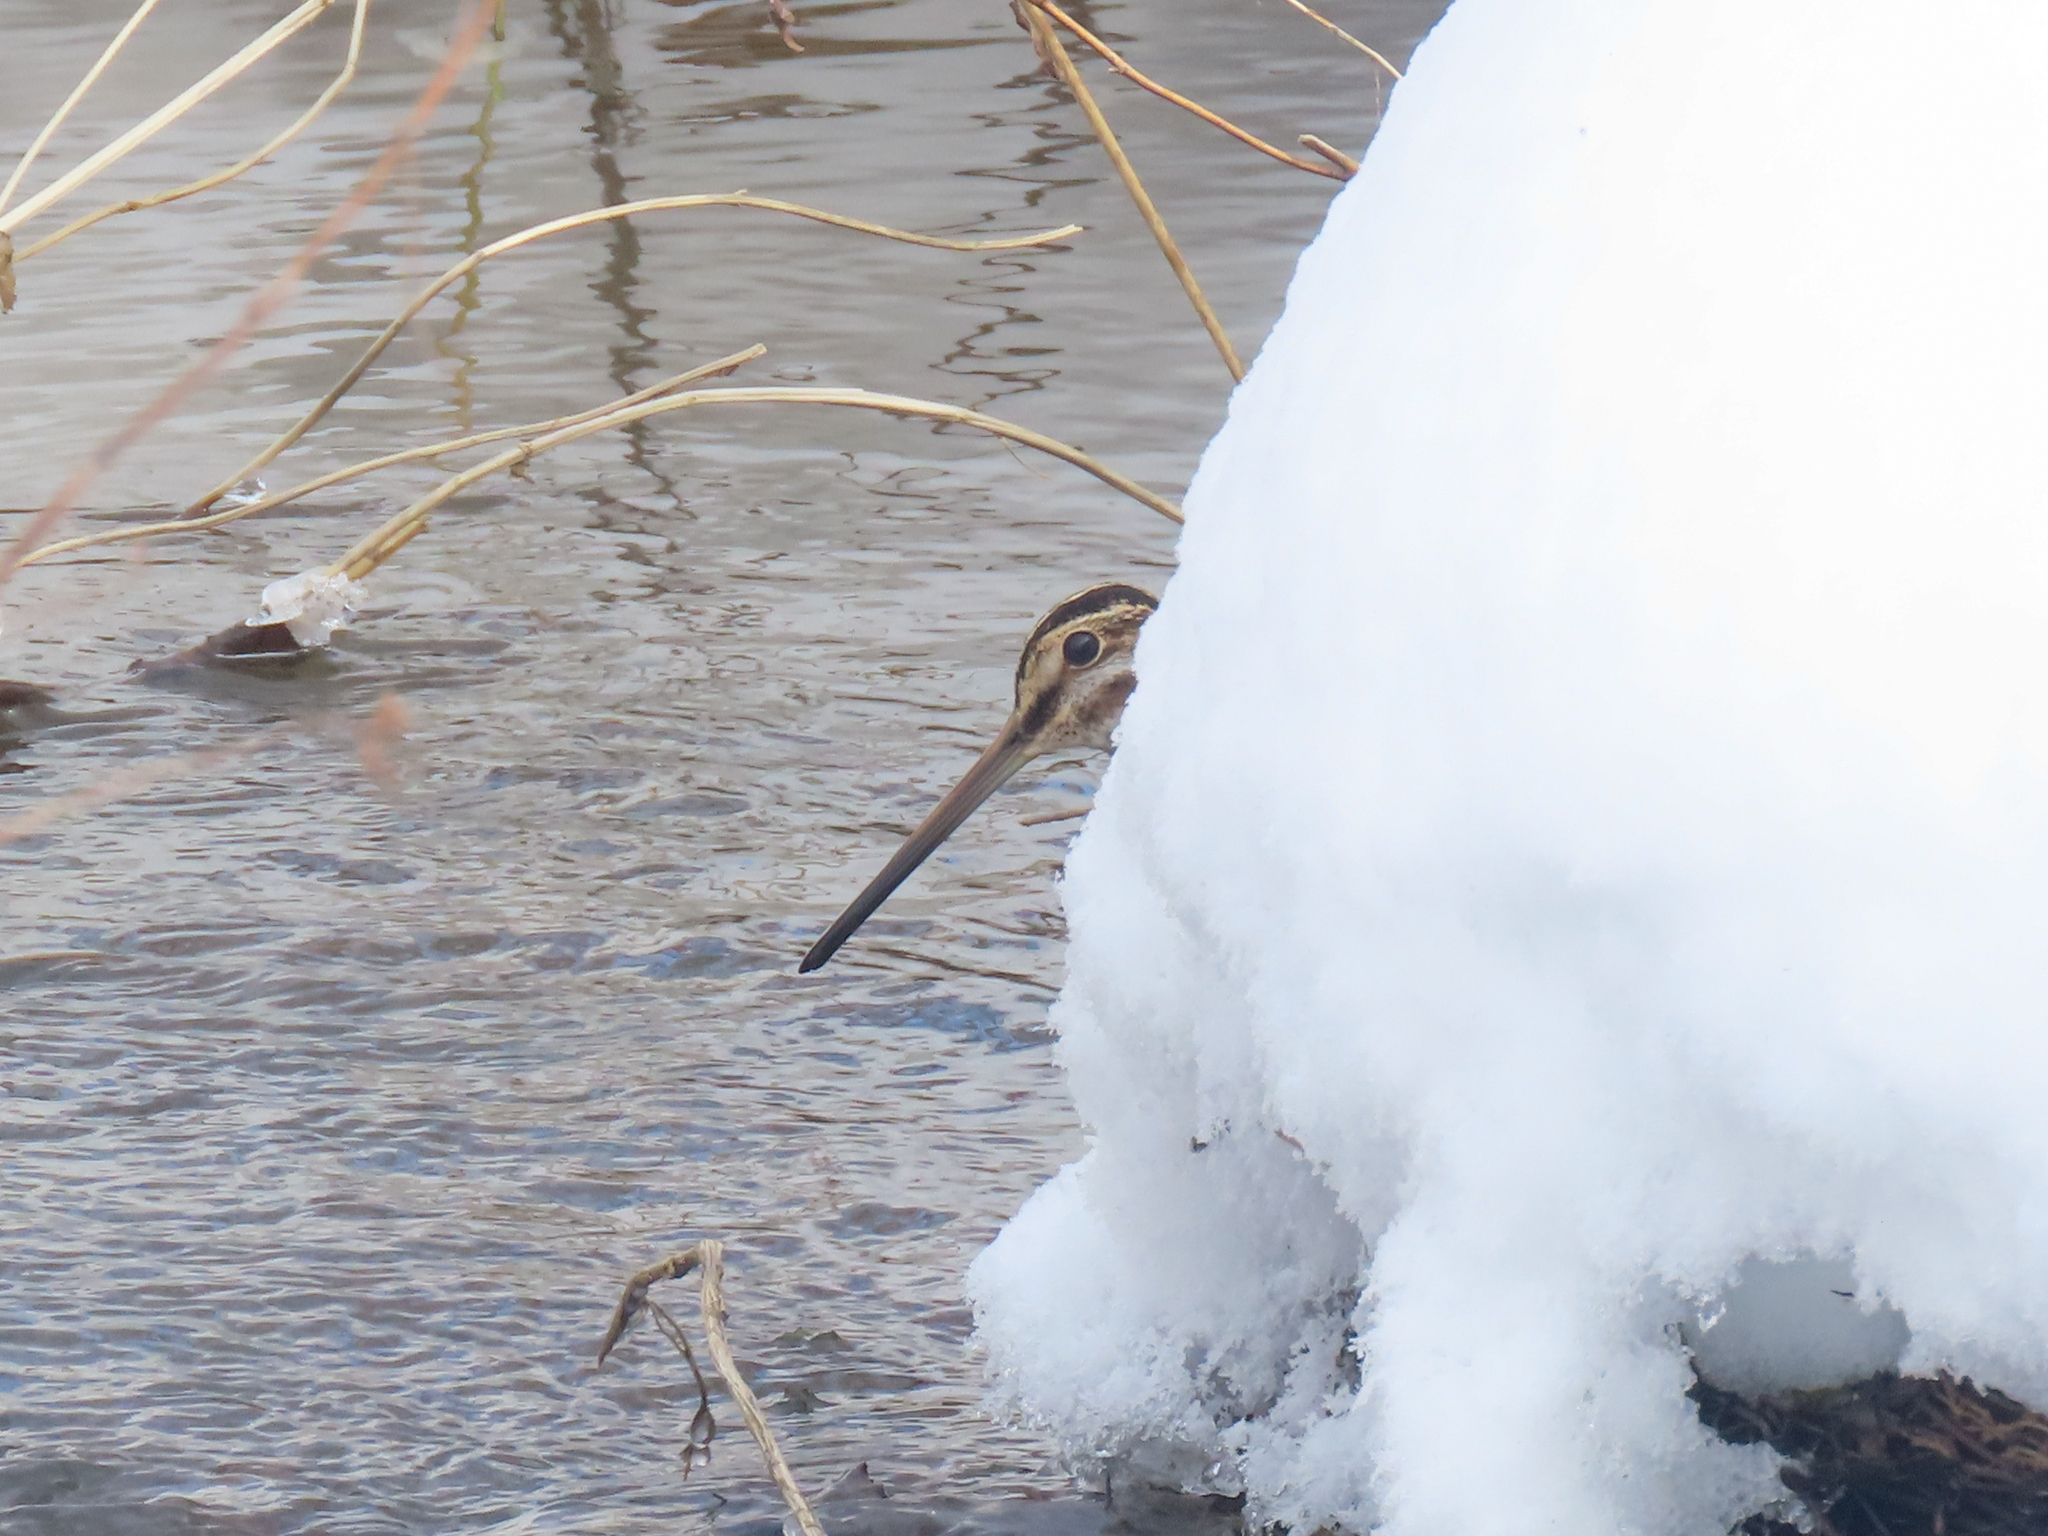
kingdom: Animalia
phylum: Chordata
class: Aves
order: Charadriiformes
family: Scolopacidae
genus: Gallinago
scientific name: Gallinago delicata
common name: Wilson's snipe
